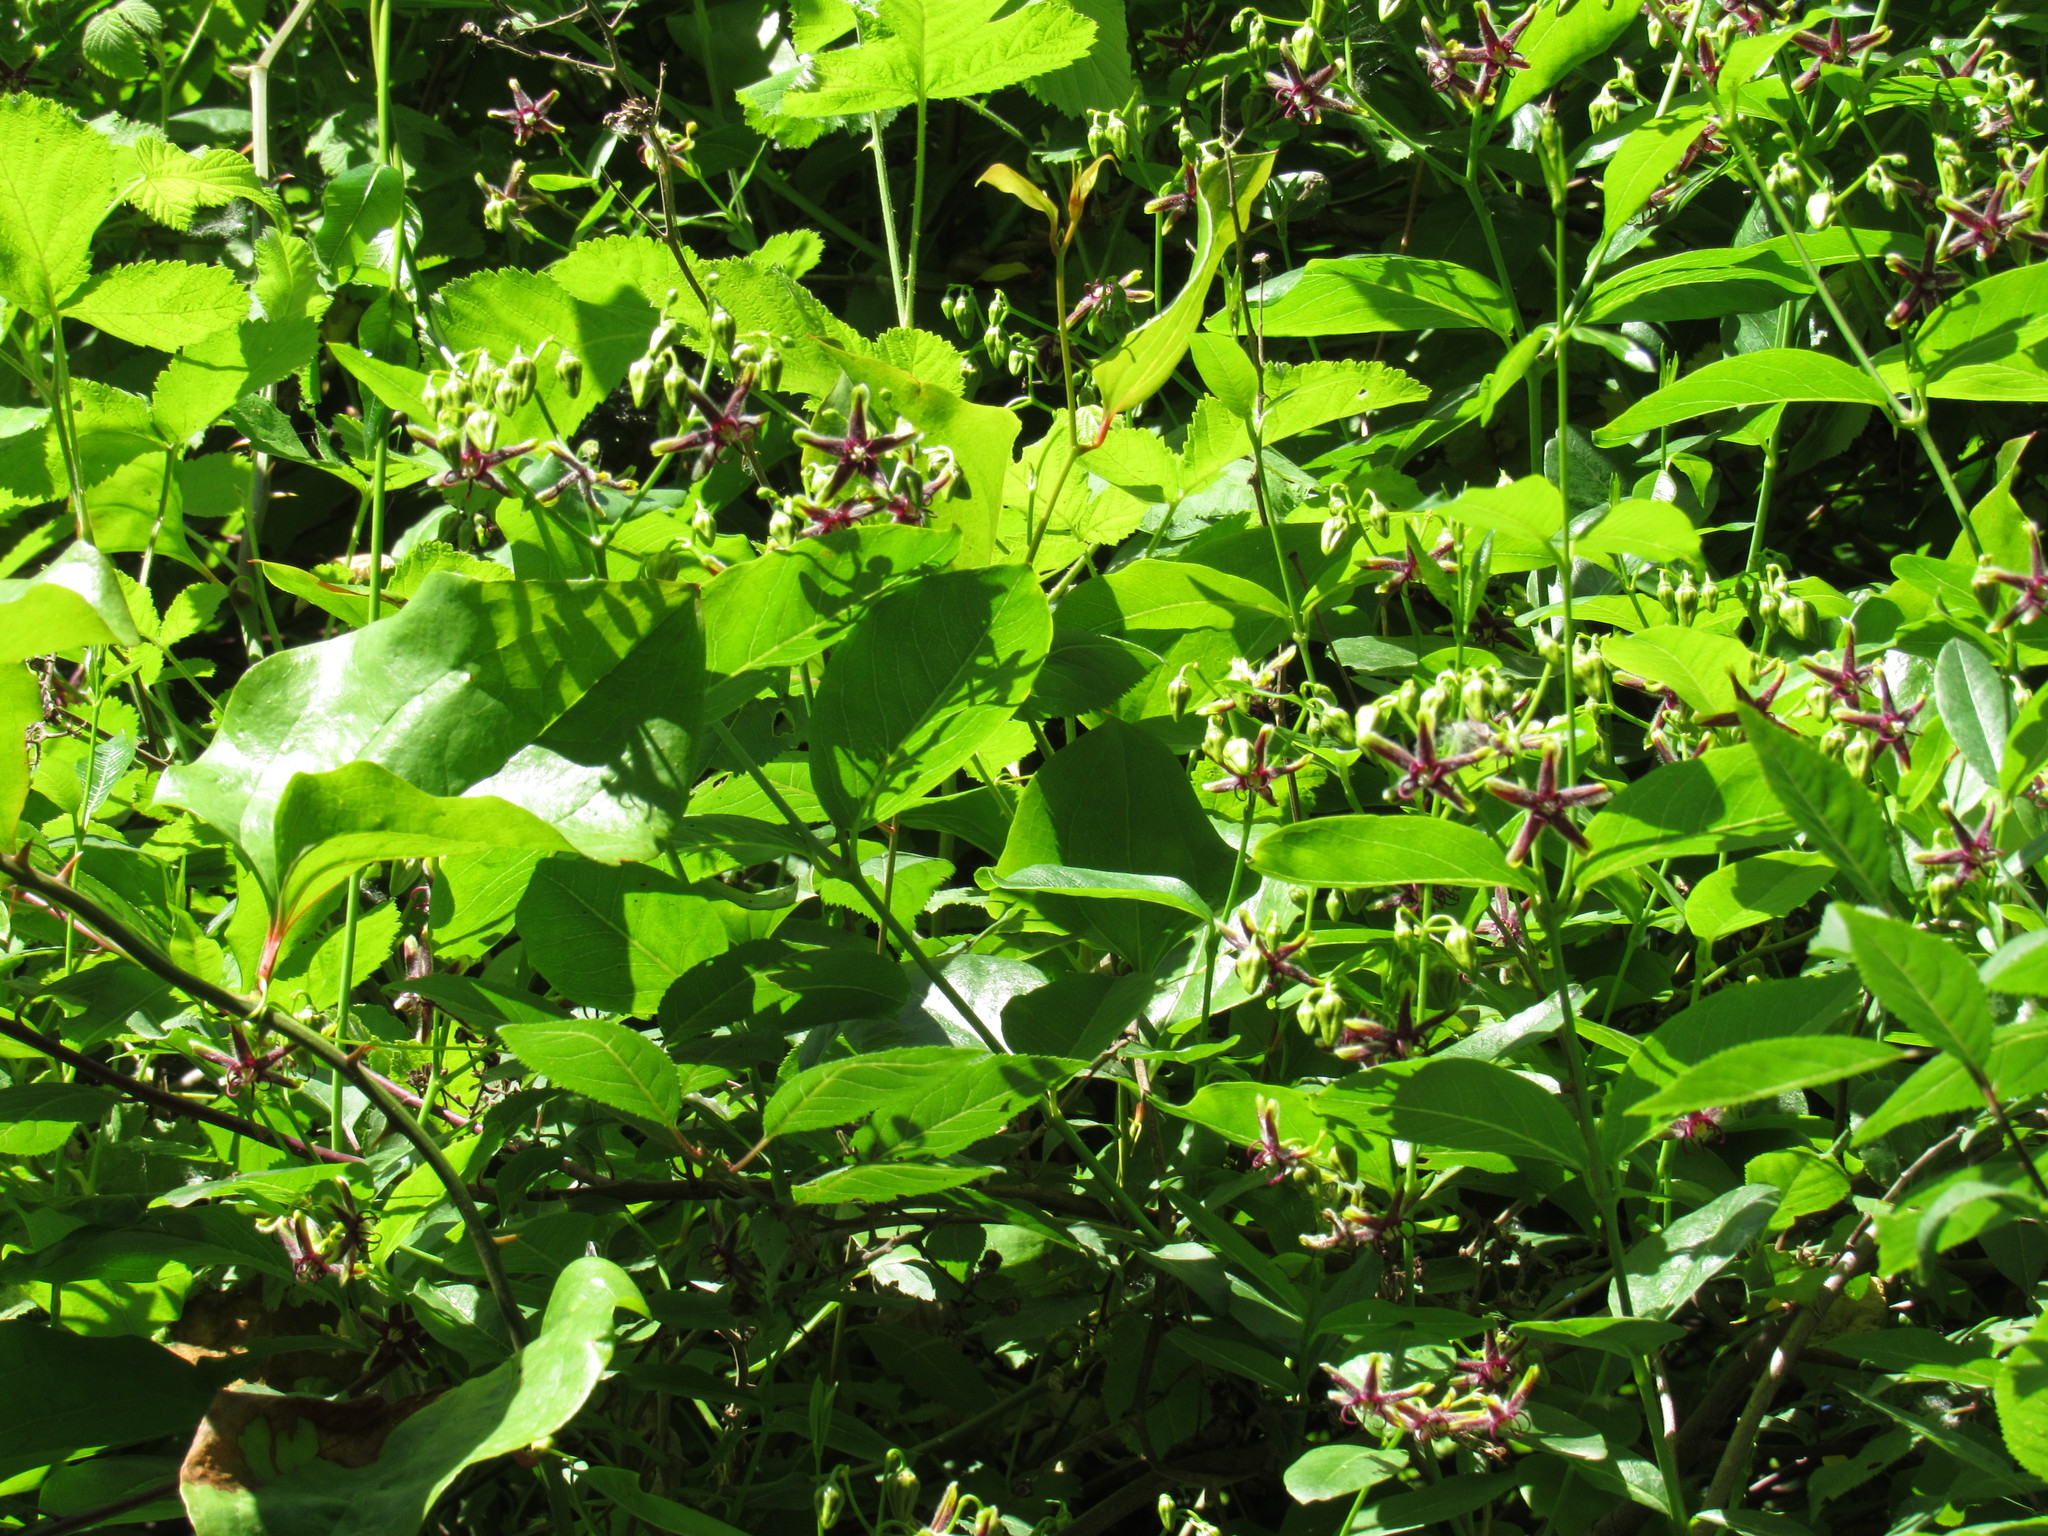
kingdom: Plantae
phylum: Tracheophyta
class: Magnoliopsida
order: Gentianales
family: Apocynaceae
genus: Periploca
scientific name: Periploca graeca
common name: Silkvine
